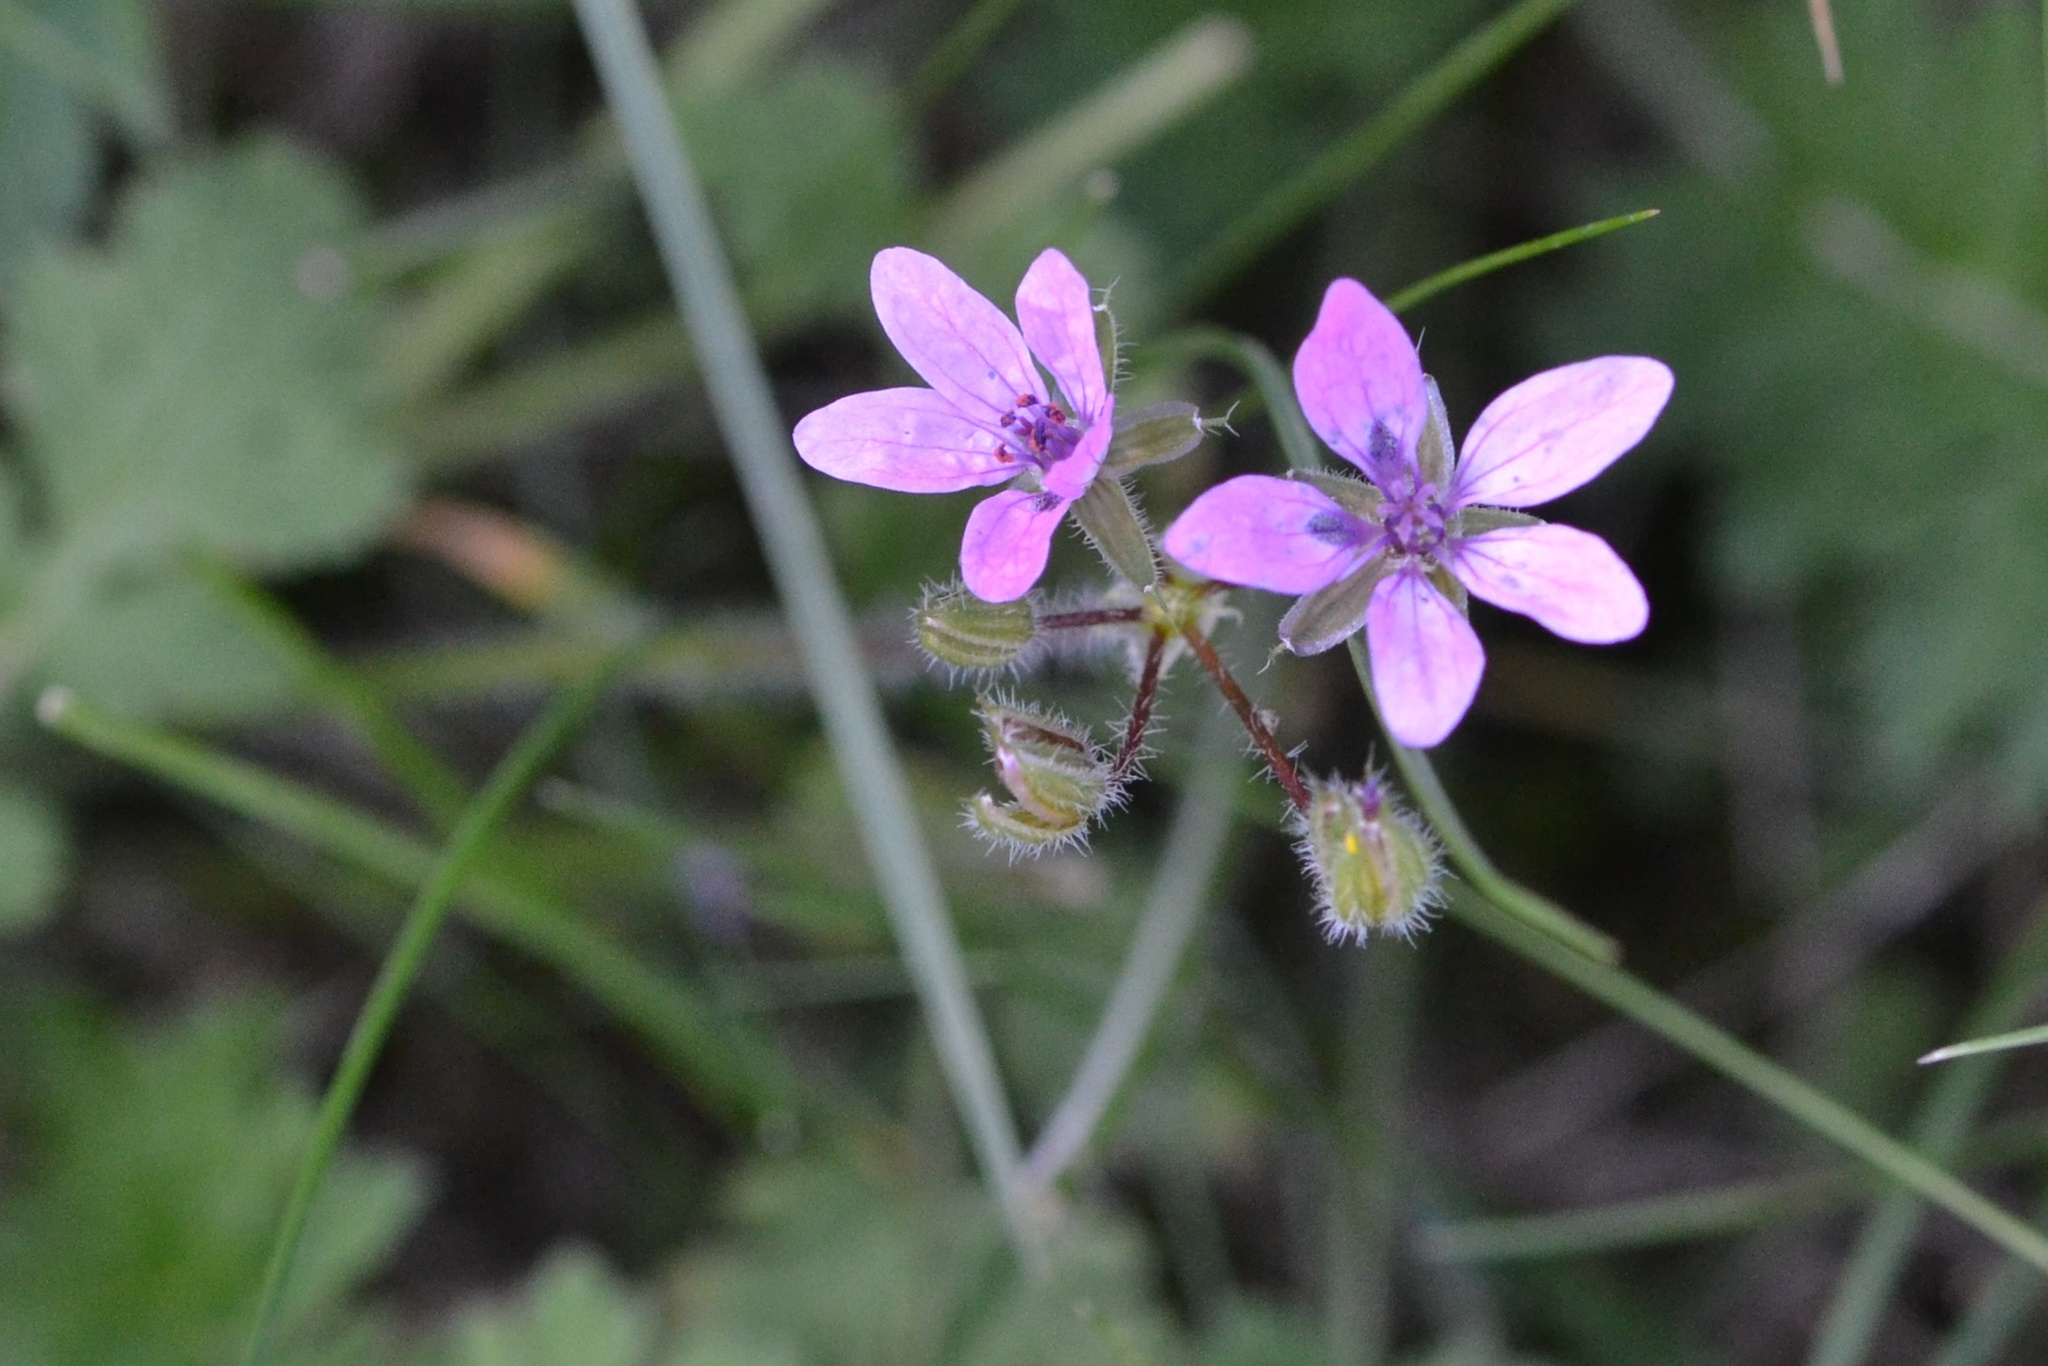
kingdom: Plantae
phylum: Tracheophyta
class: Magnoliopsida
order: Geraniales
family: Geraniaceae
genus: Erodium
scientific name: Erodium cicutarium
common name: Common stork's-bill
